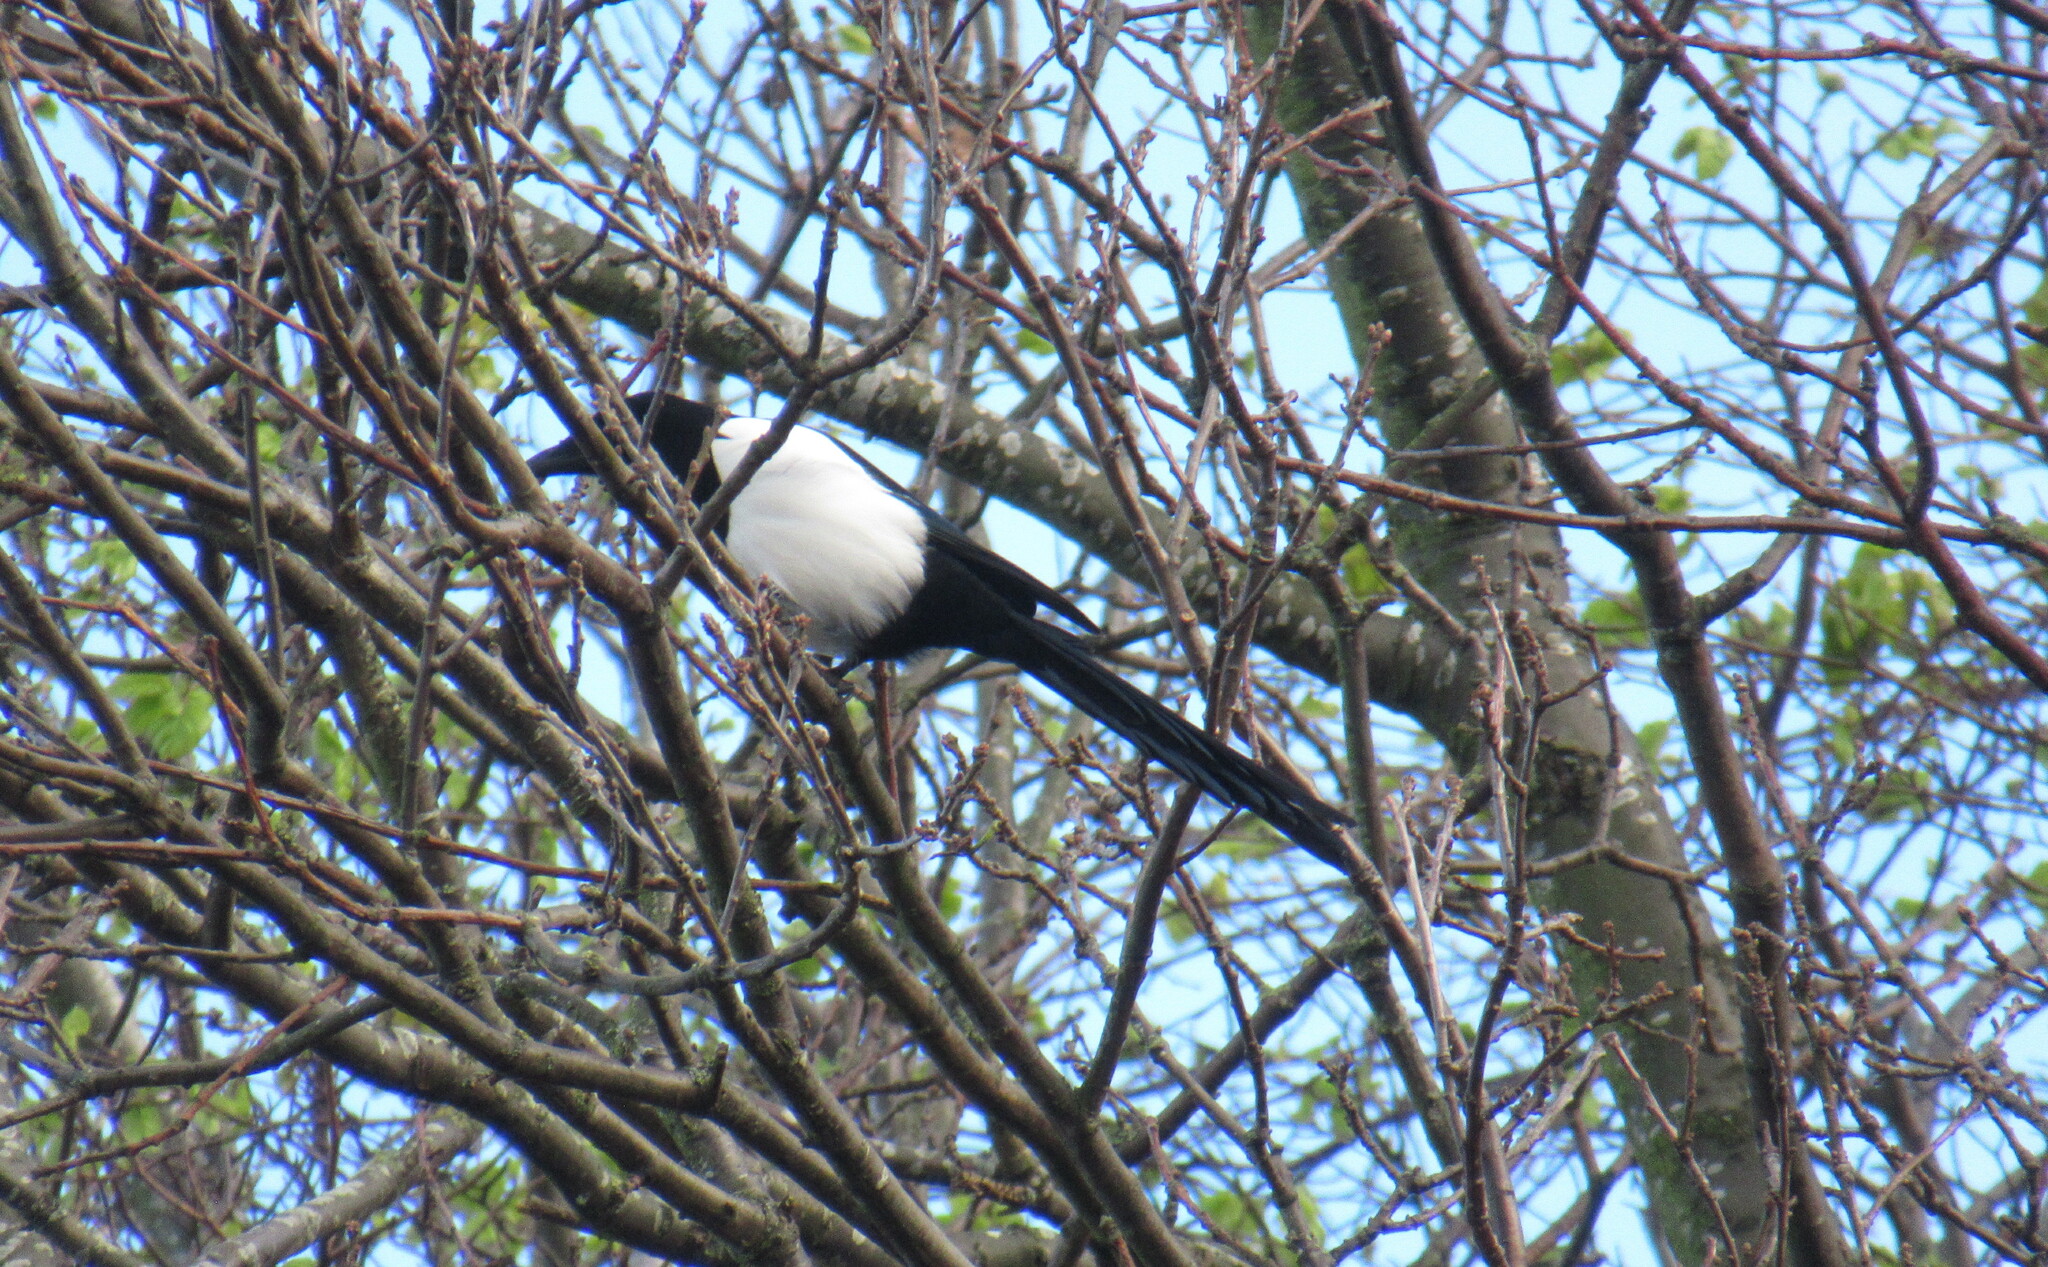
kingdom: Animalia
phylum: Chordata
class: Aves
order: Passeriformes
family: Corvidae
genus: Pica
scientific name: Pica pica
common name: Eurasian magpie
